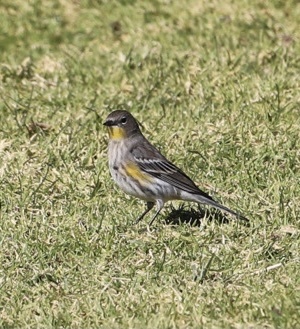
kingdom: Animalia
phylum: Chordata
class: Aves
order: Passeriformes
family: Parulidae
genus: Setophaga
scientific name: Setophaga coronata
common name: Myrtle warbler
